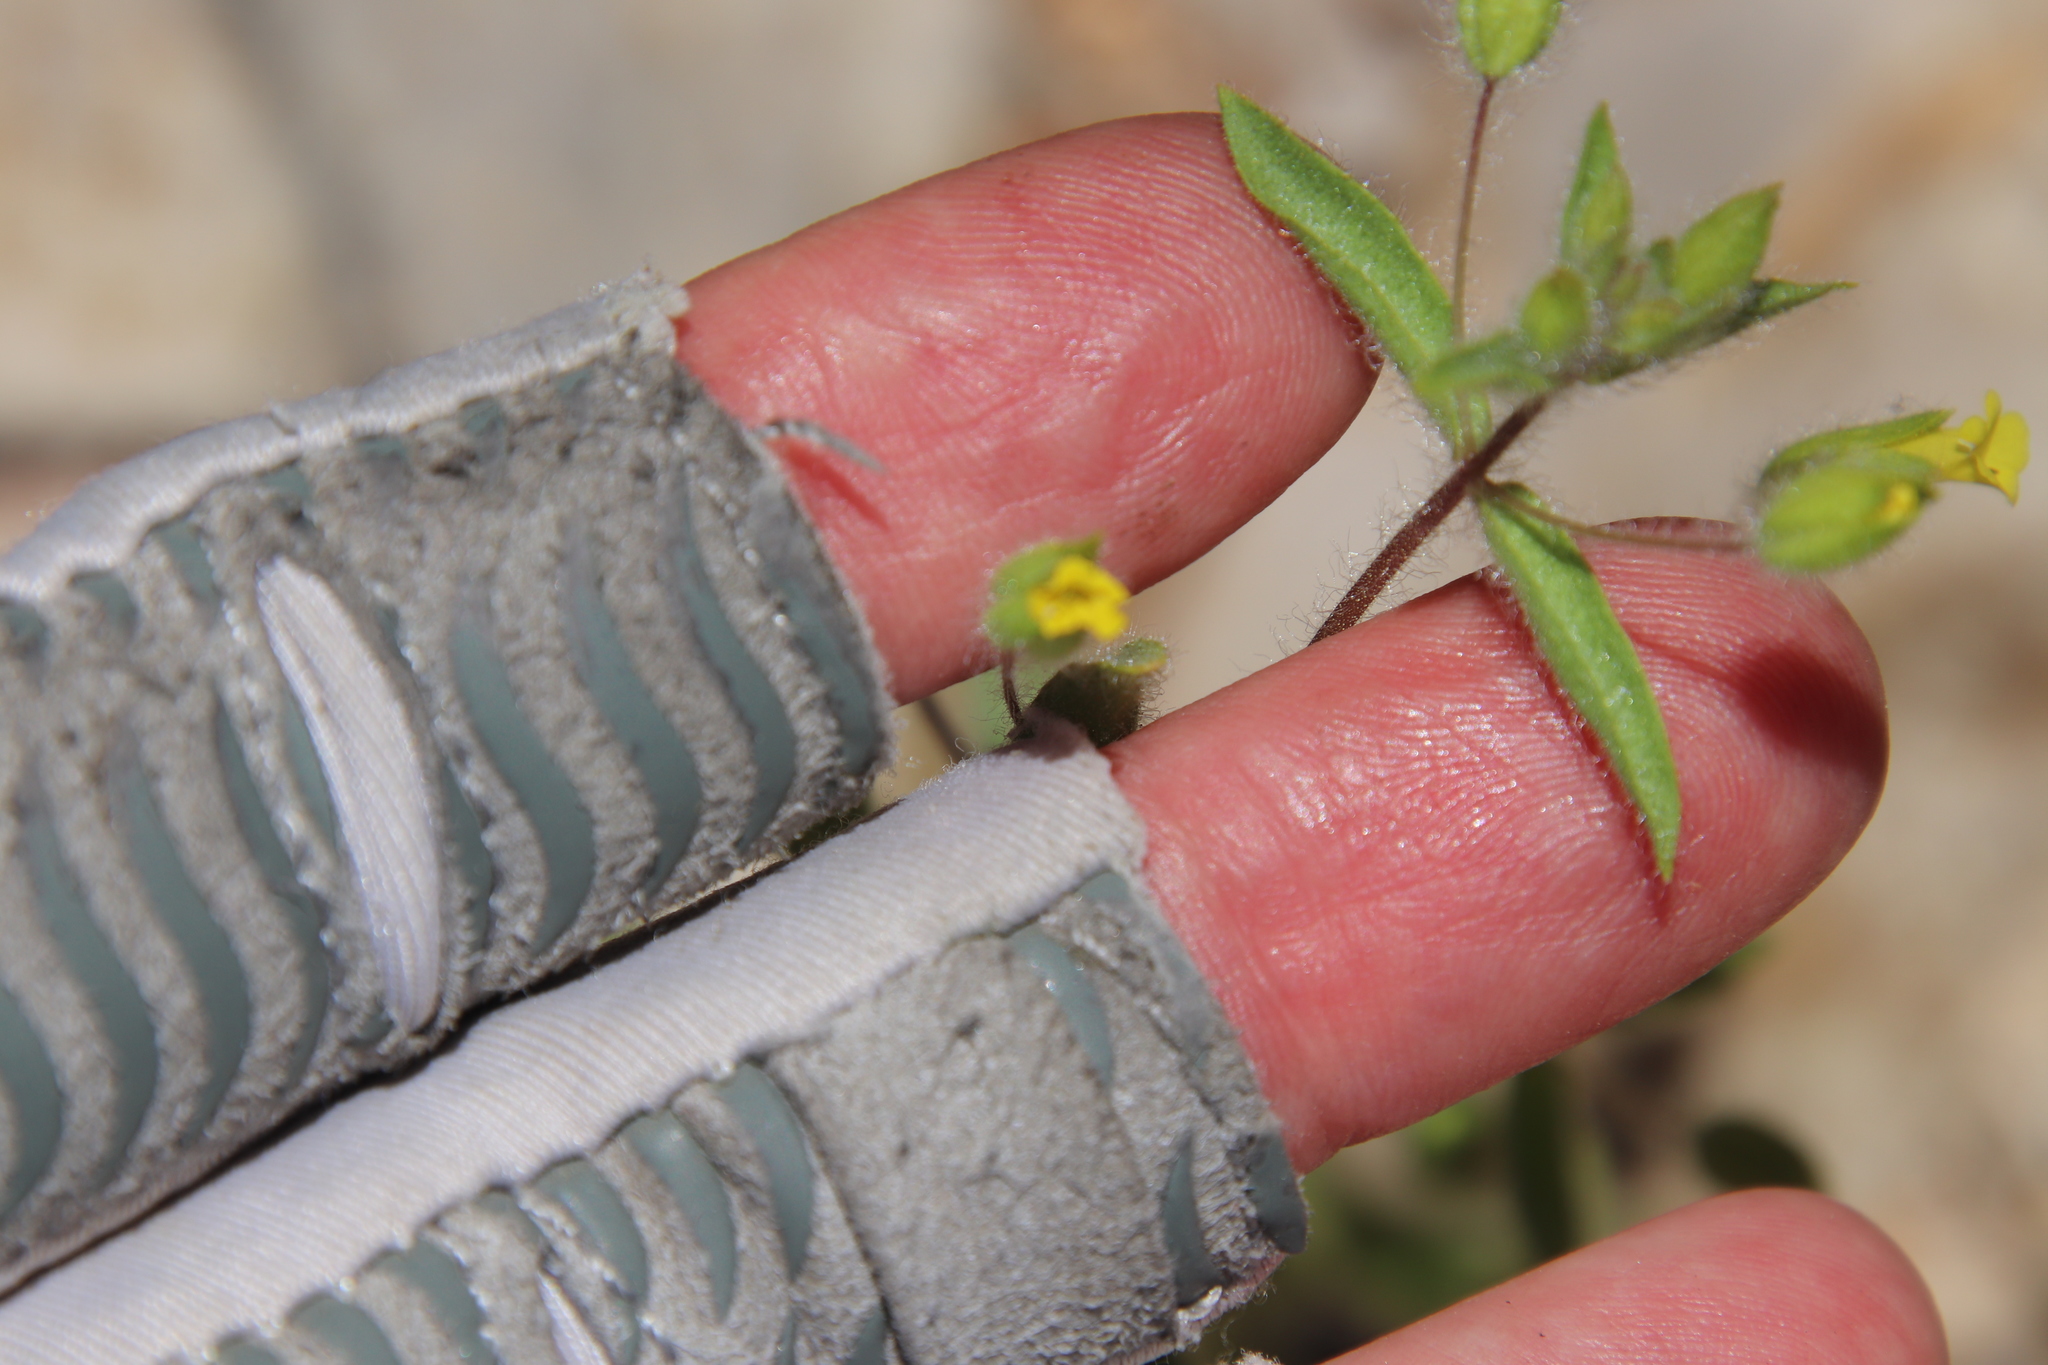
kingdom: Plantae
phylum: Tracheophyta
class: Magnoliopsida
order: Lamiales
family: Phrymaceae
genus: Mimetanthe
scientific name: Mimetanthe pilosa
